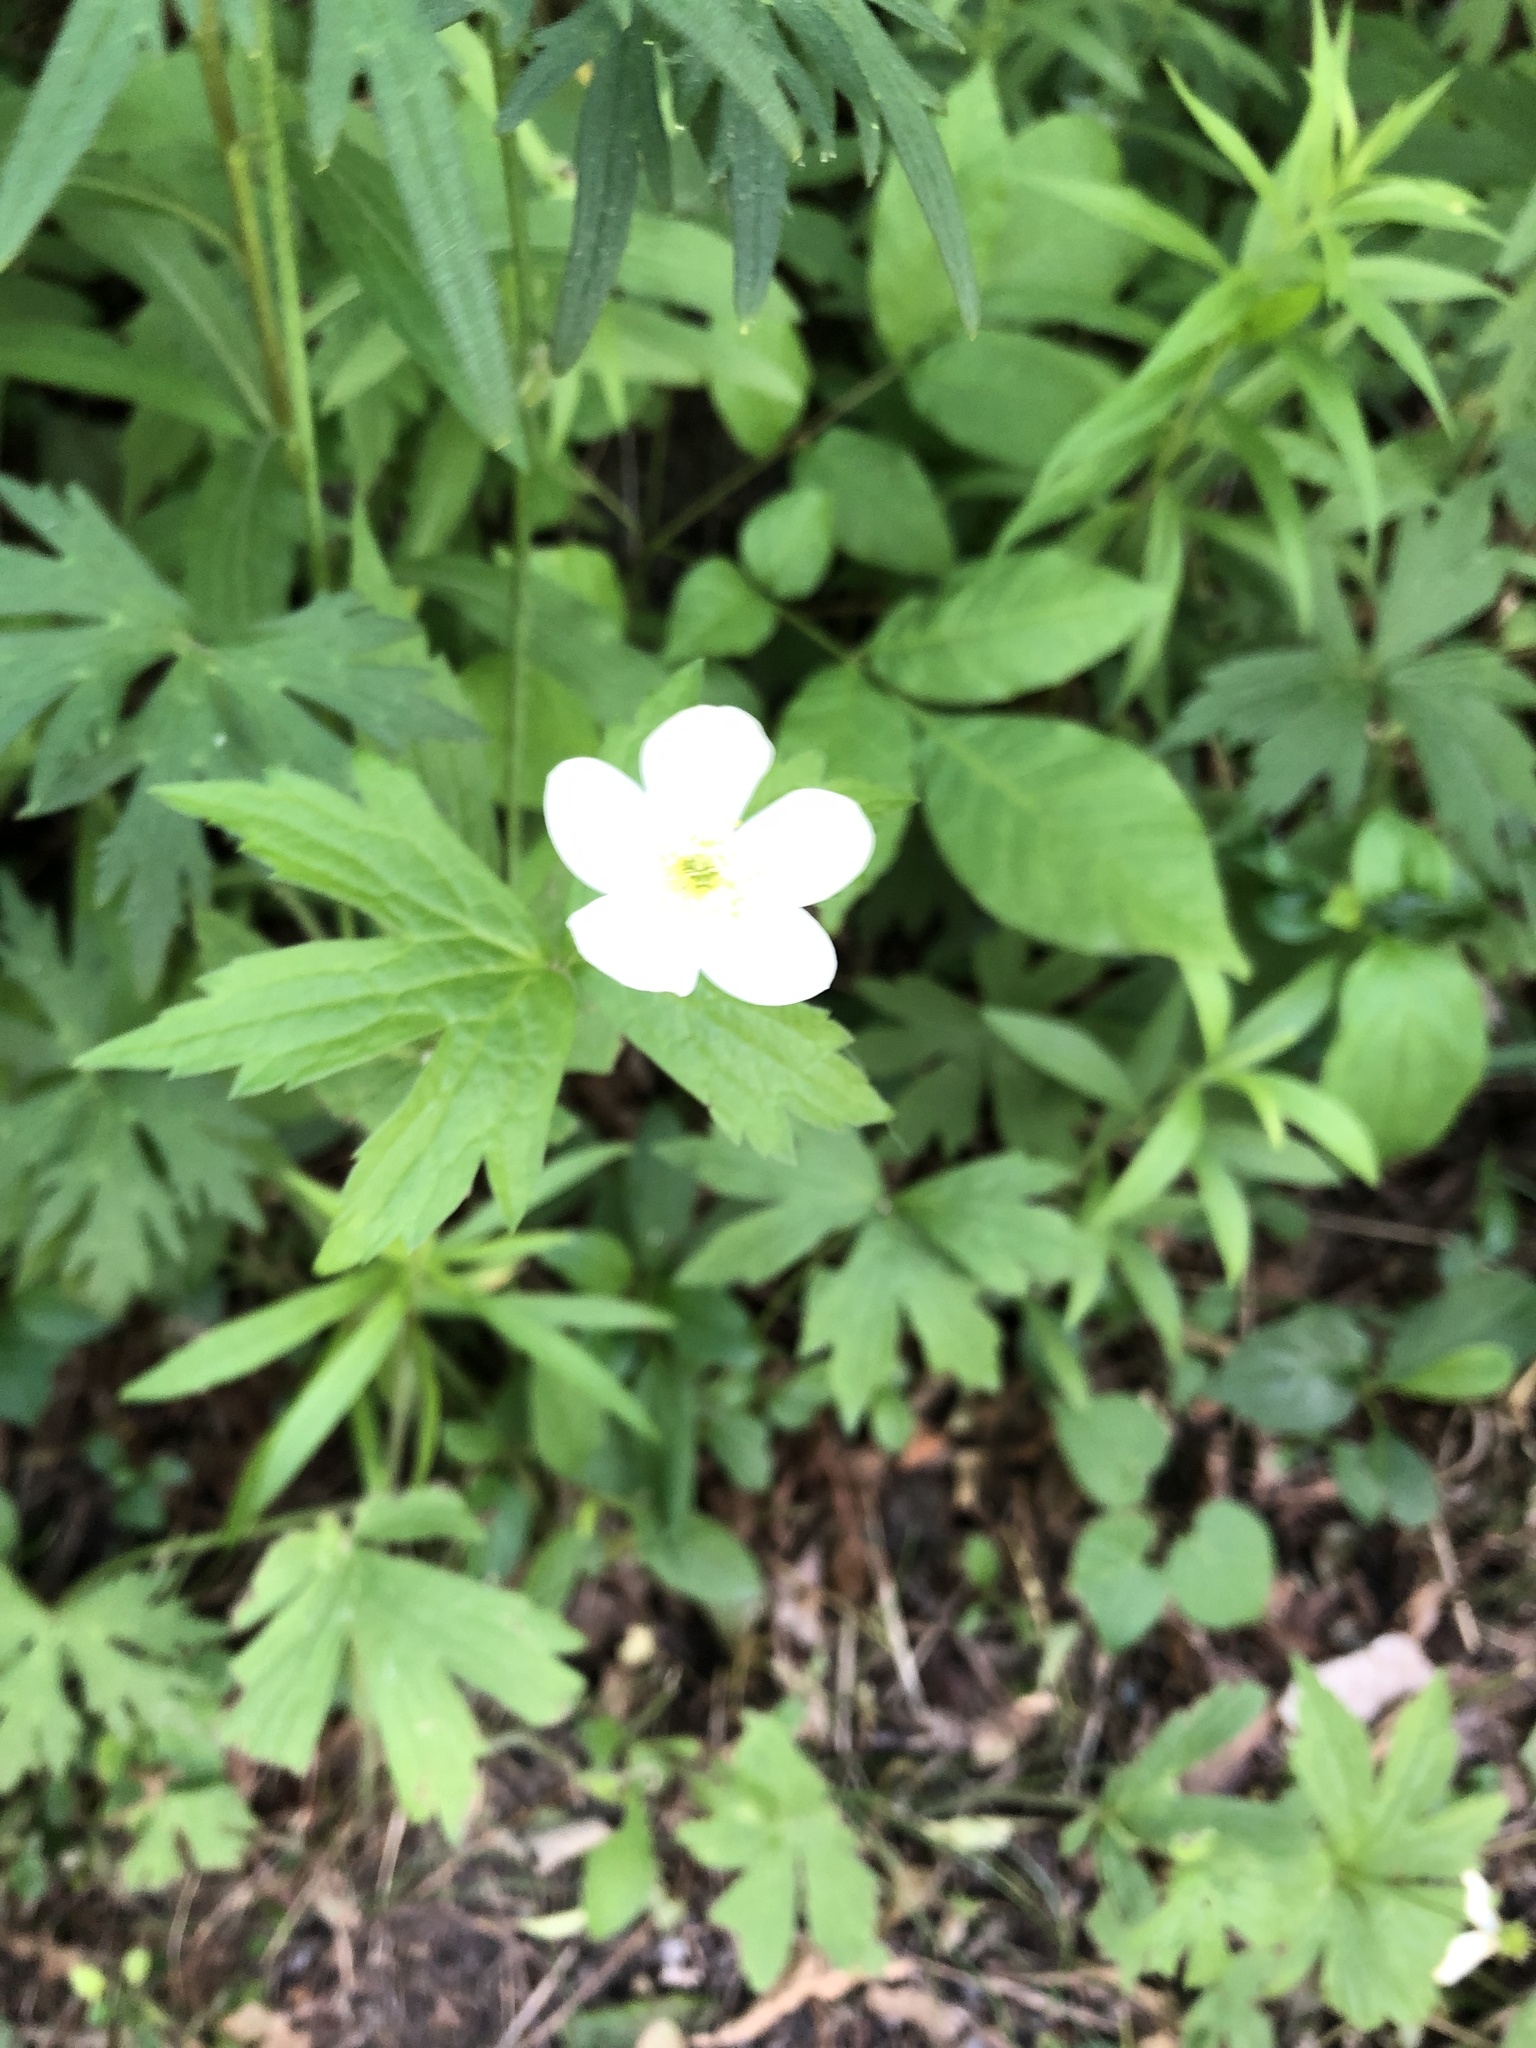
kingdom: Plantae
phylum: Tracheophyta
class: Magnoliopsida
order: Ranunculales
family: Ranunculaceae
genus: Anemonastrum
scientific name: Anemonastrum canadense
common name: Canada anemone
